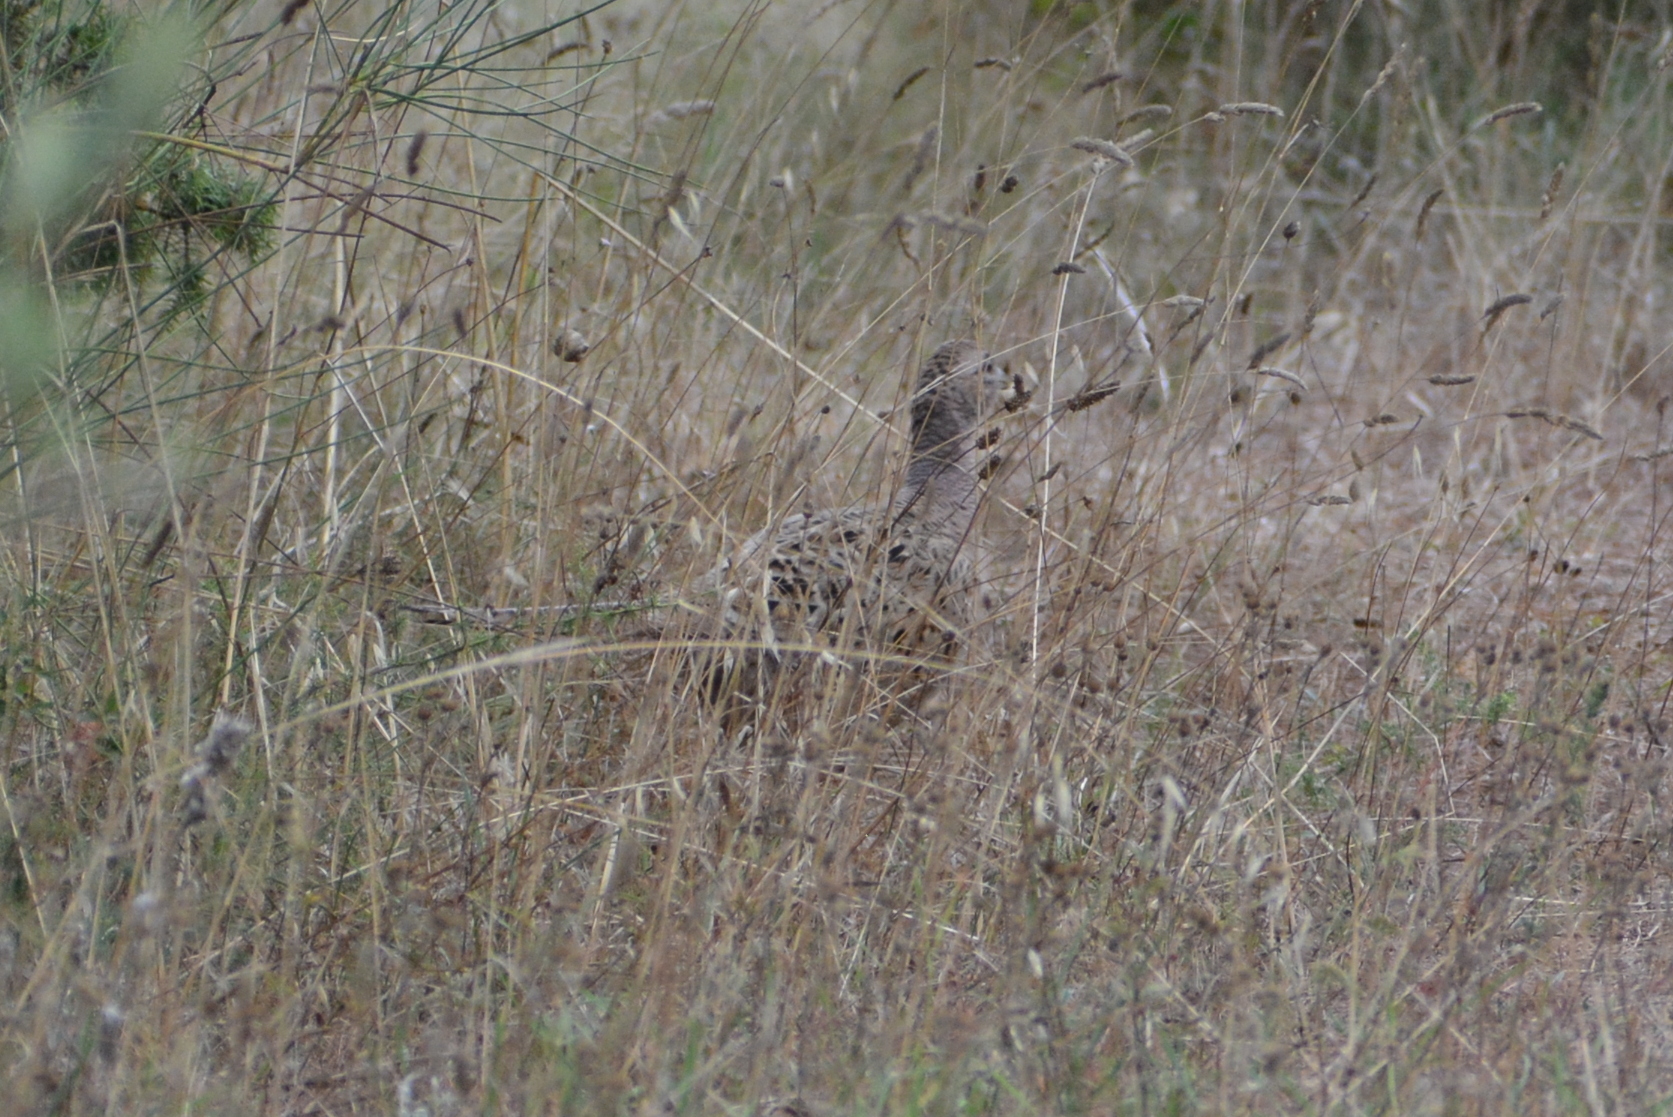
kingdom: Animalia
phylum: Chordata
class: Aves
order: Galliformes
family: Phasianidae
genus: Phasianus
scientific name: Phasianus colchicus
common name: Common pheasant
